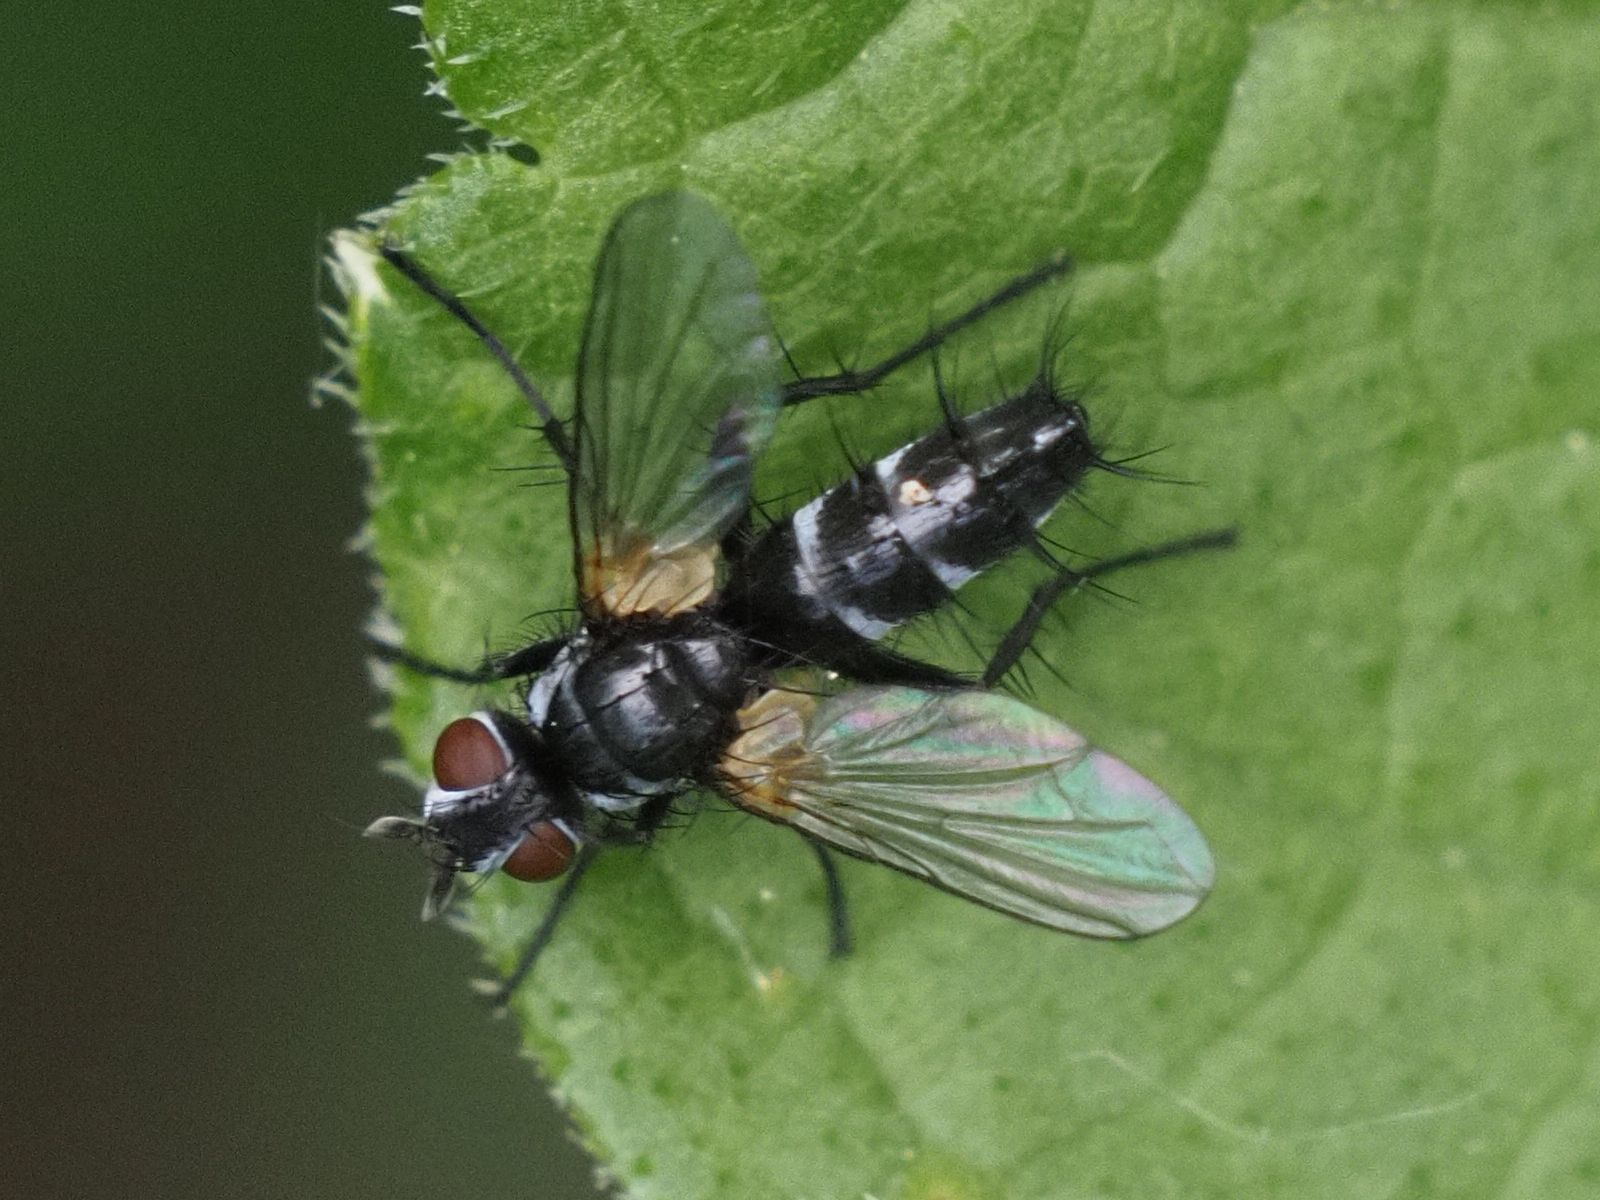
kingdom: Animalia
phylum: Arthropoda
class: Insecta
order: Diptera
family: Tachinidae
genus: Phyllomya
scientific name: Phyllomya volvulus
